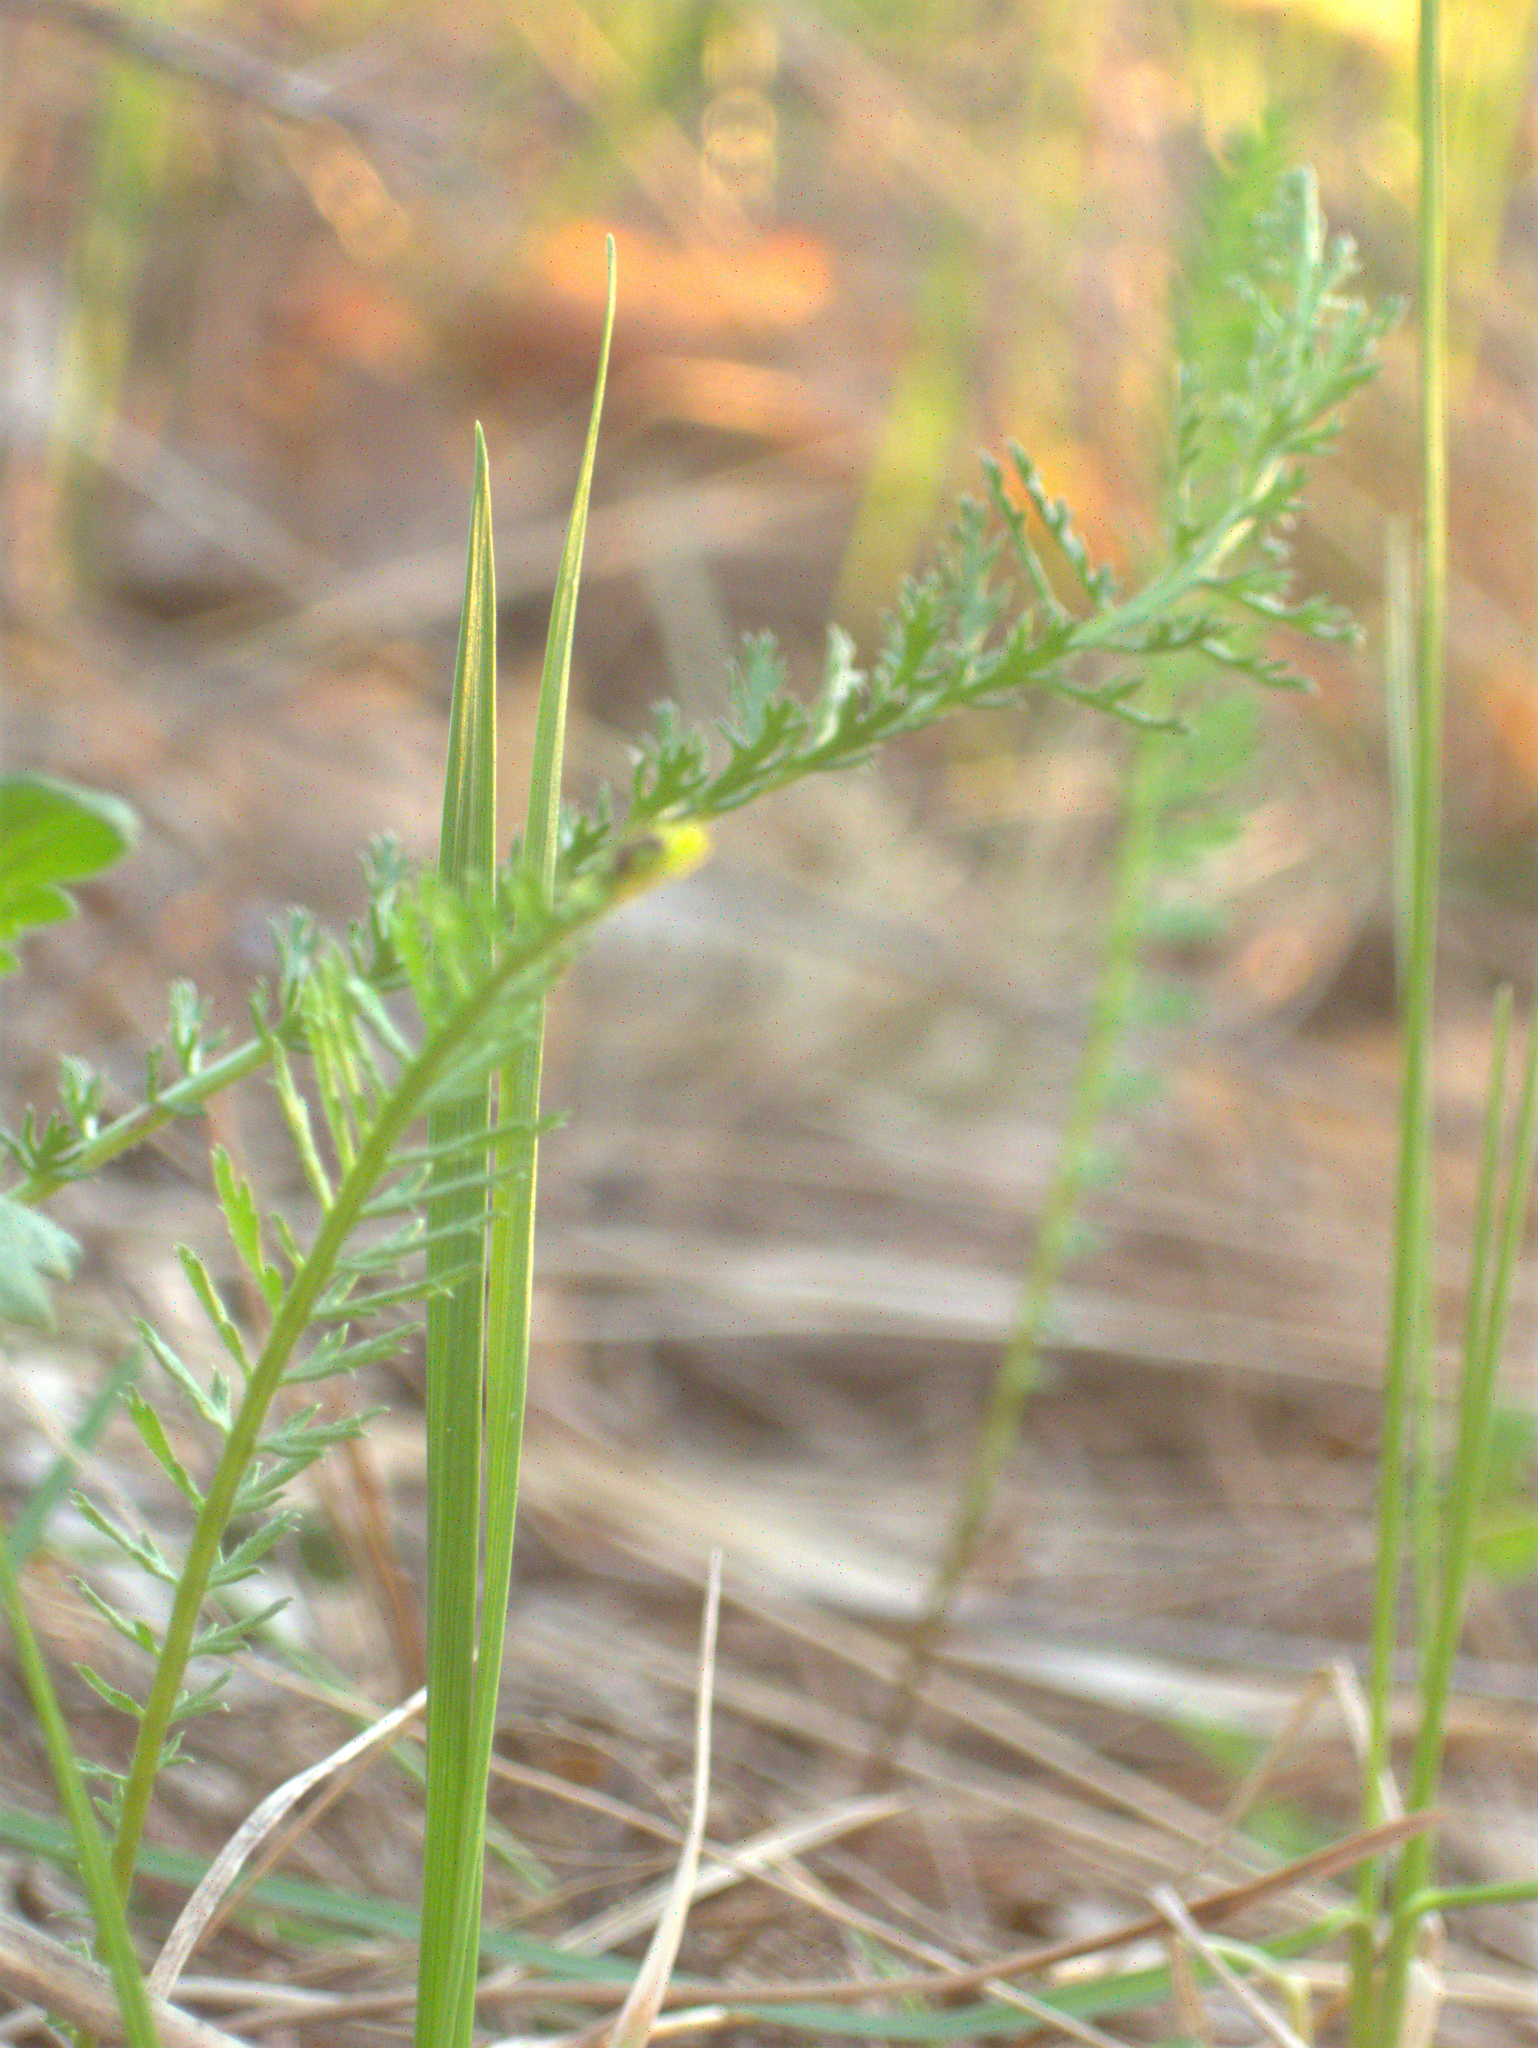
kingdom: Plantae
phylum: Tracheophyta
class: Magnoliopsida
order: Asterales
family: Asteraceae
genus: Achillea
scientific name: Achillea millefolium
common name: Yarrow
